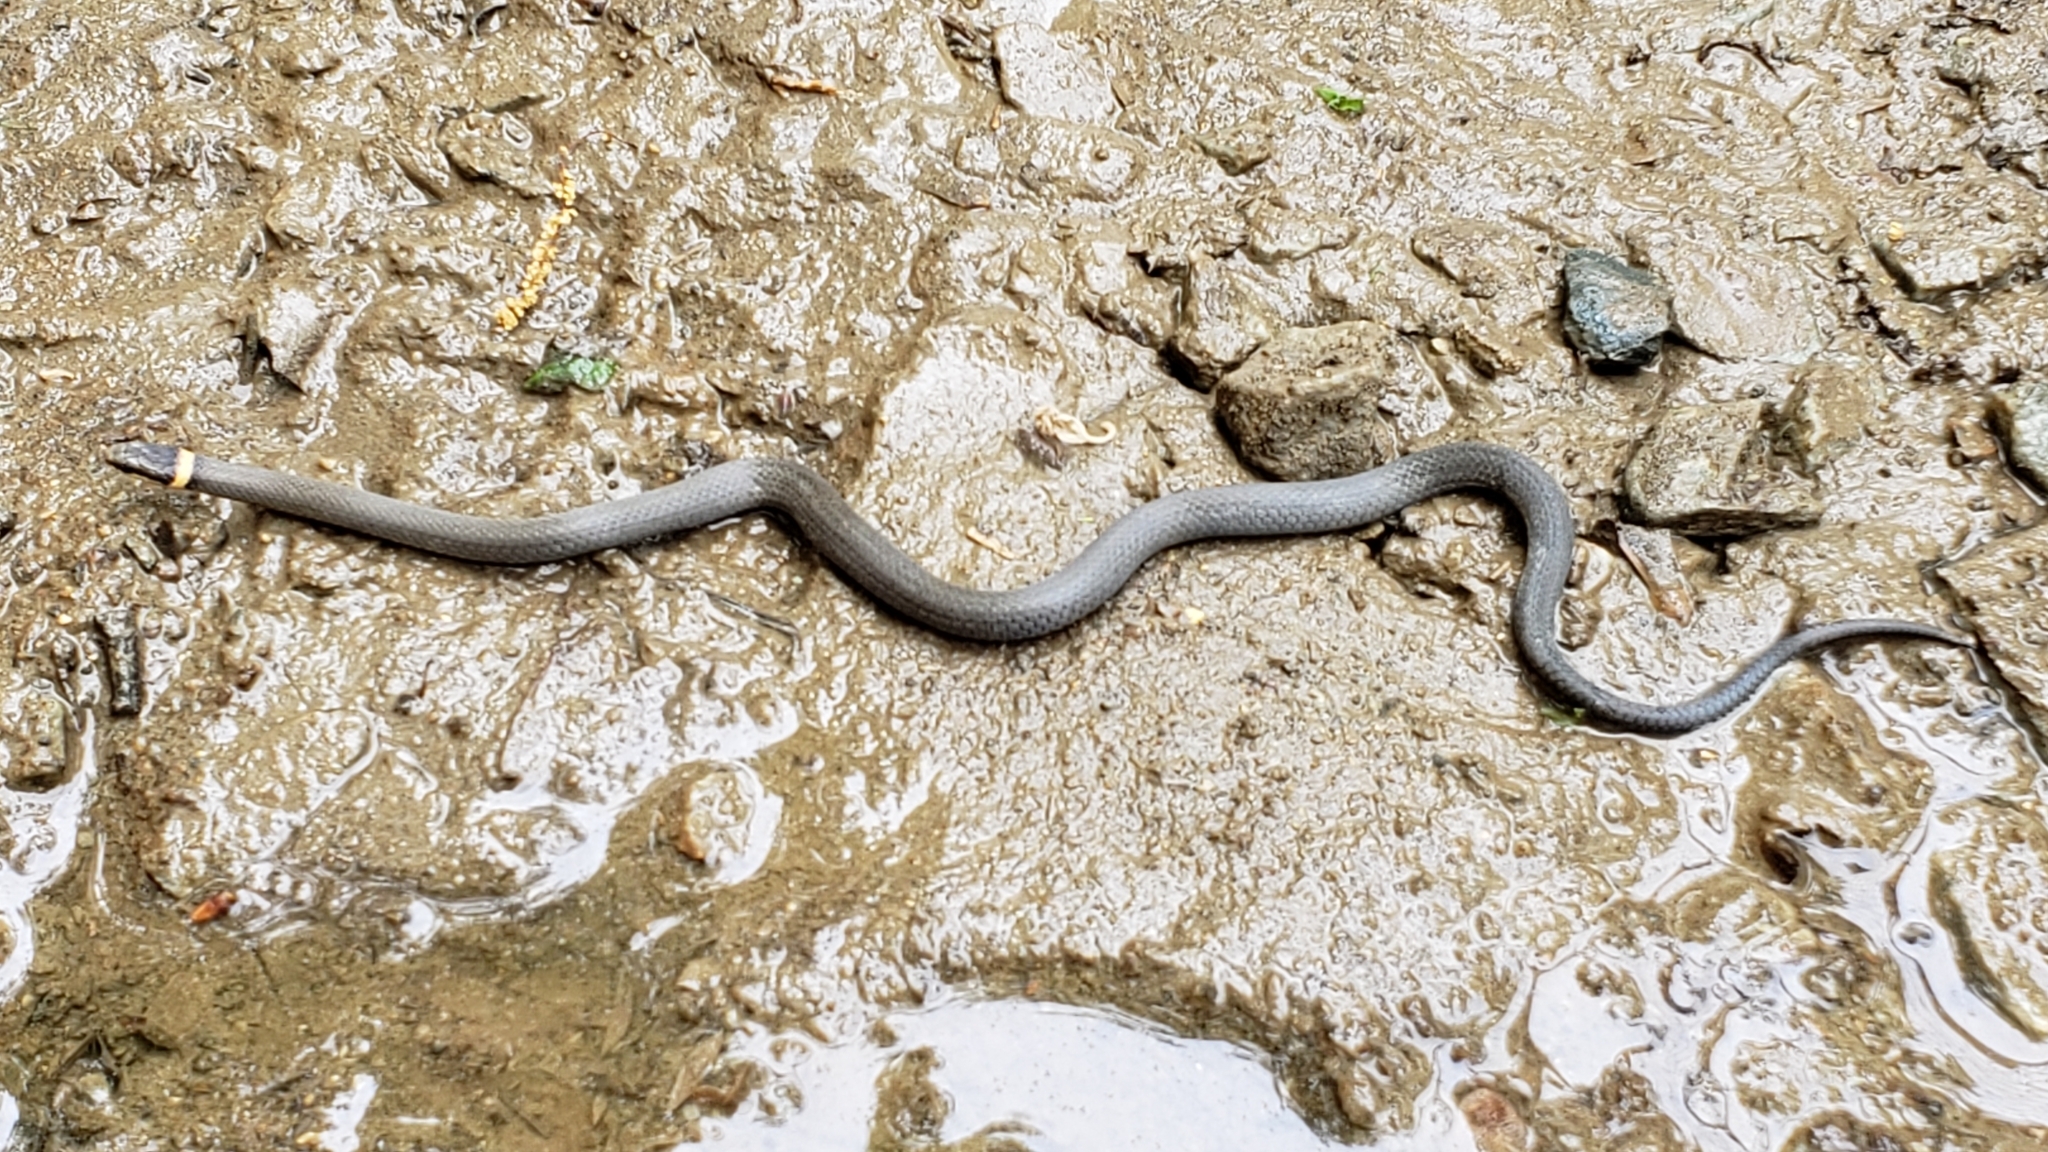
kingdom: Animalia
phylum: Chordata
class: Squamata
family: Colubridae
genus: Diadophis
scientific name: Diadophis punctatus
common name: Ringneck snake
